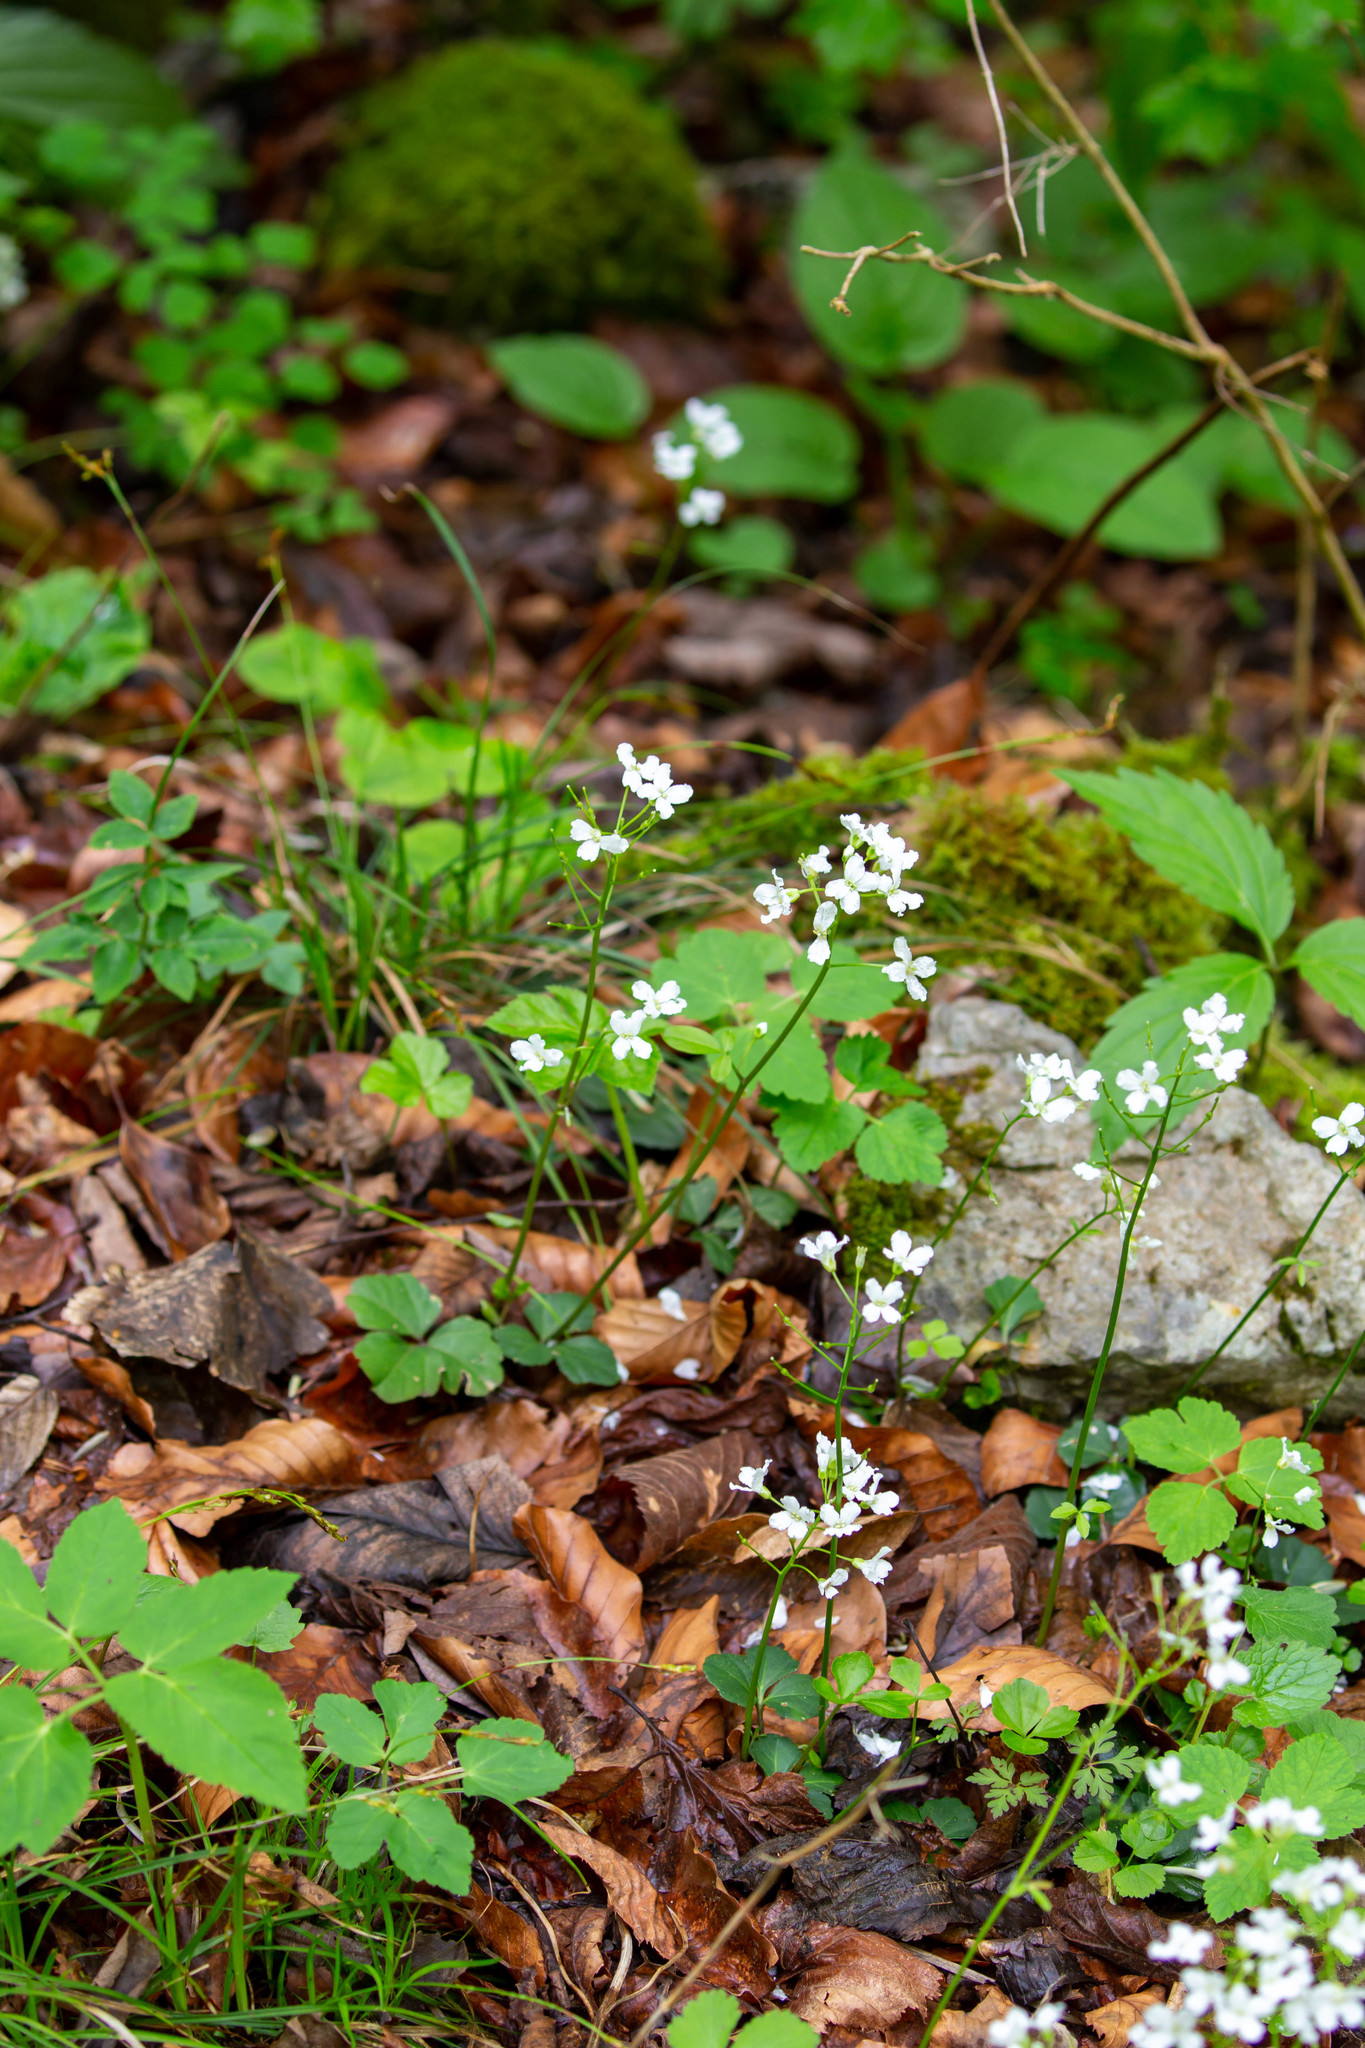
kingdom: Plantae
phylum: Tracheophyta
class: Magnoliopsida
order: Brassicales
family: Brassicaceae
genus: Cardamine
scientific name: Cardamine trifolia
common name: Trefoil cress
